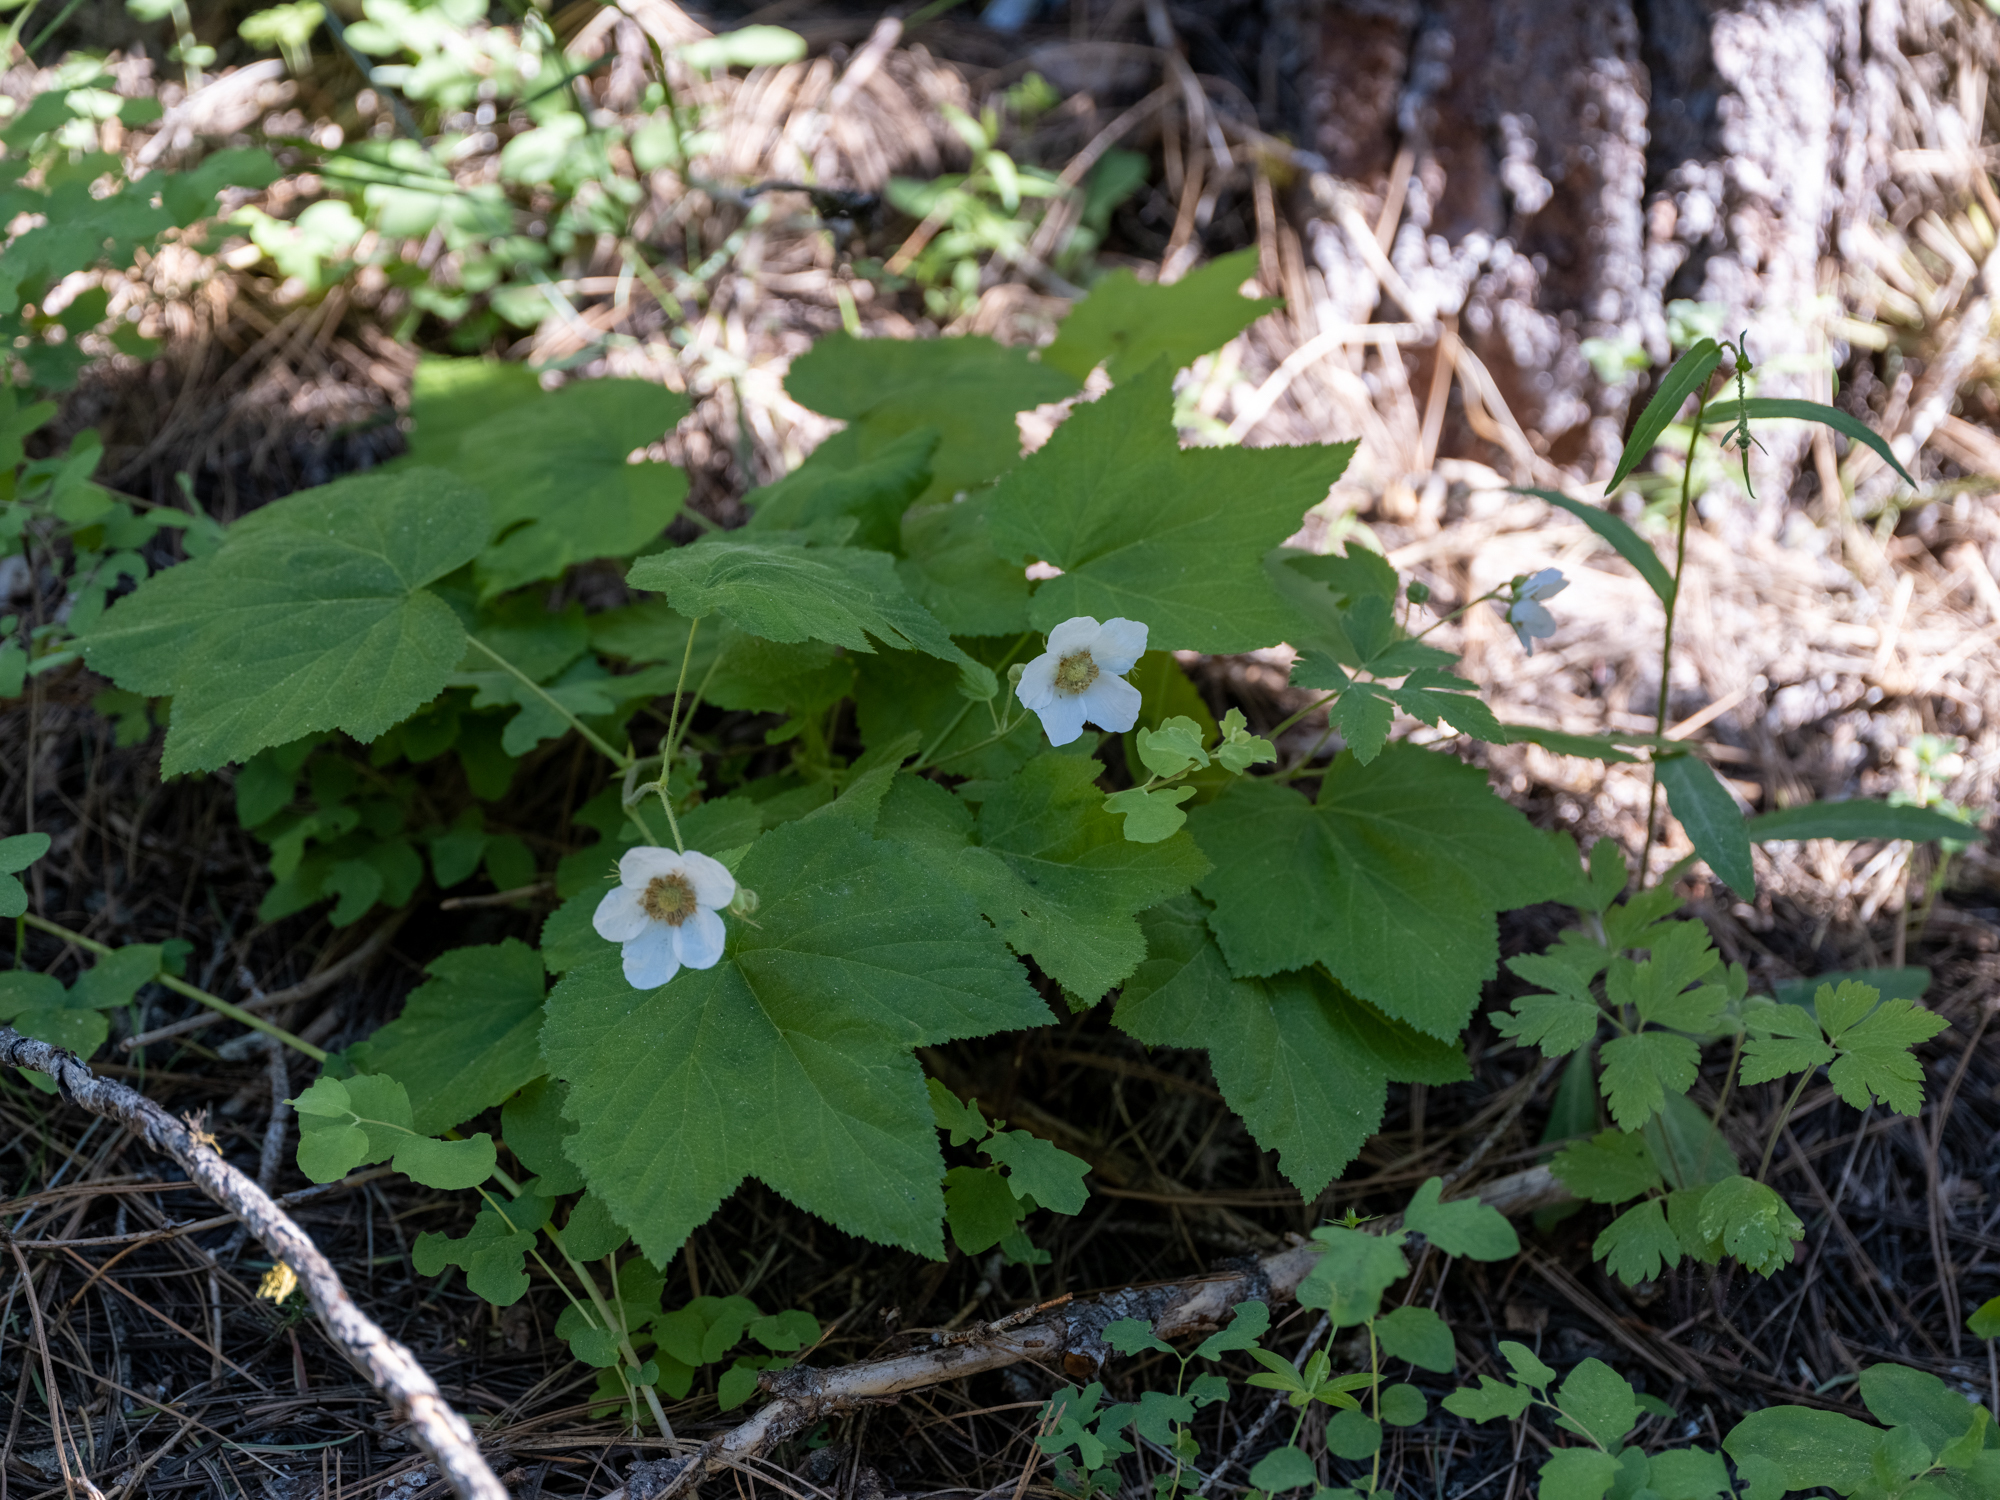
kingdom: Plantae
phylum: Tracheophyta
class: Magnoliopsida
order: Rosales
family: Rosaceae
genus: Rubus
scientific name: Rubus parviflorus
